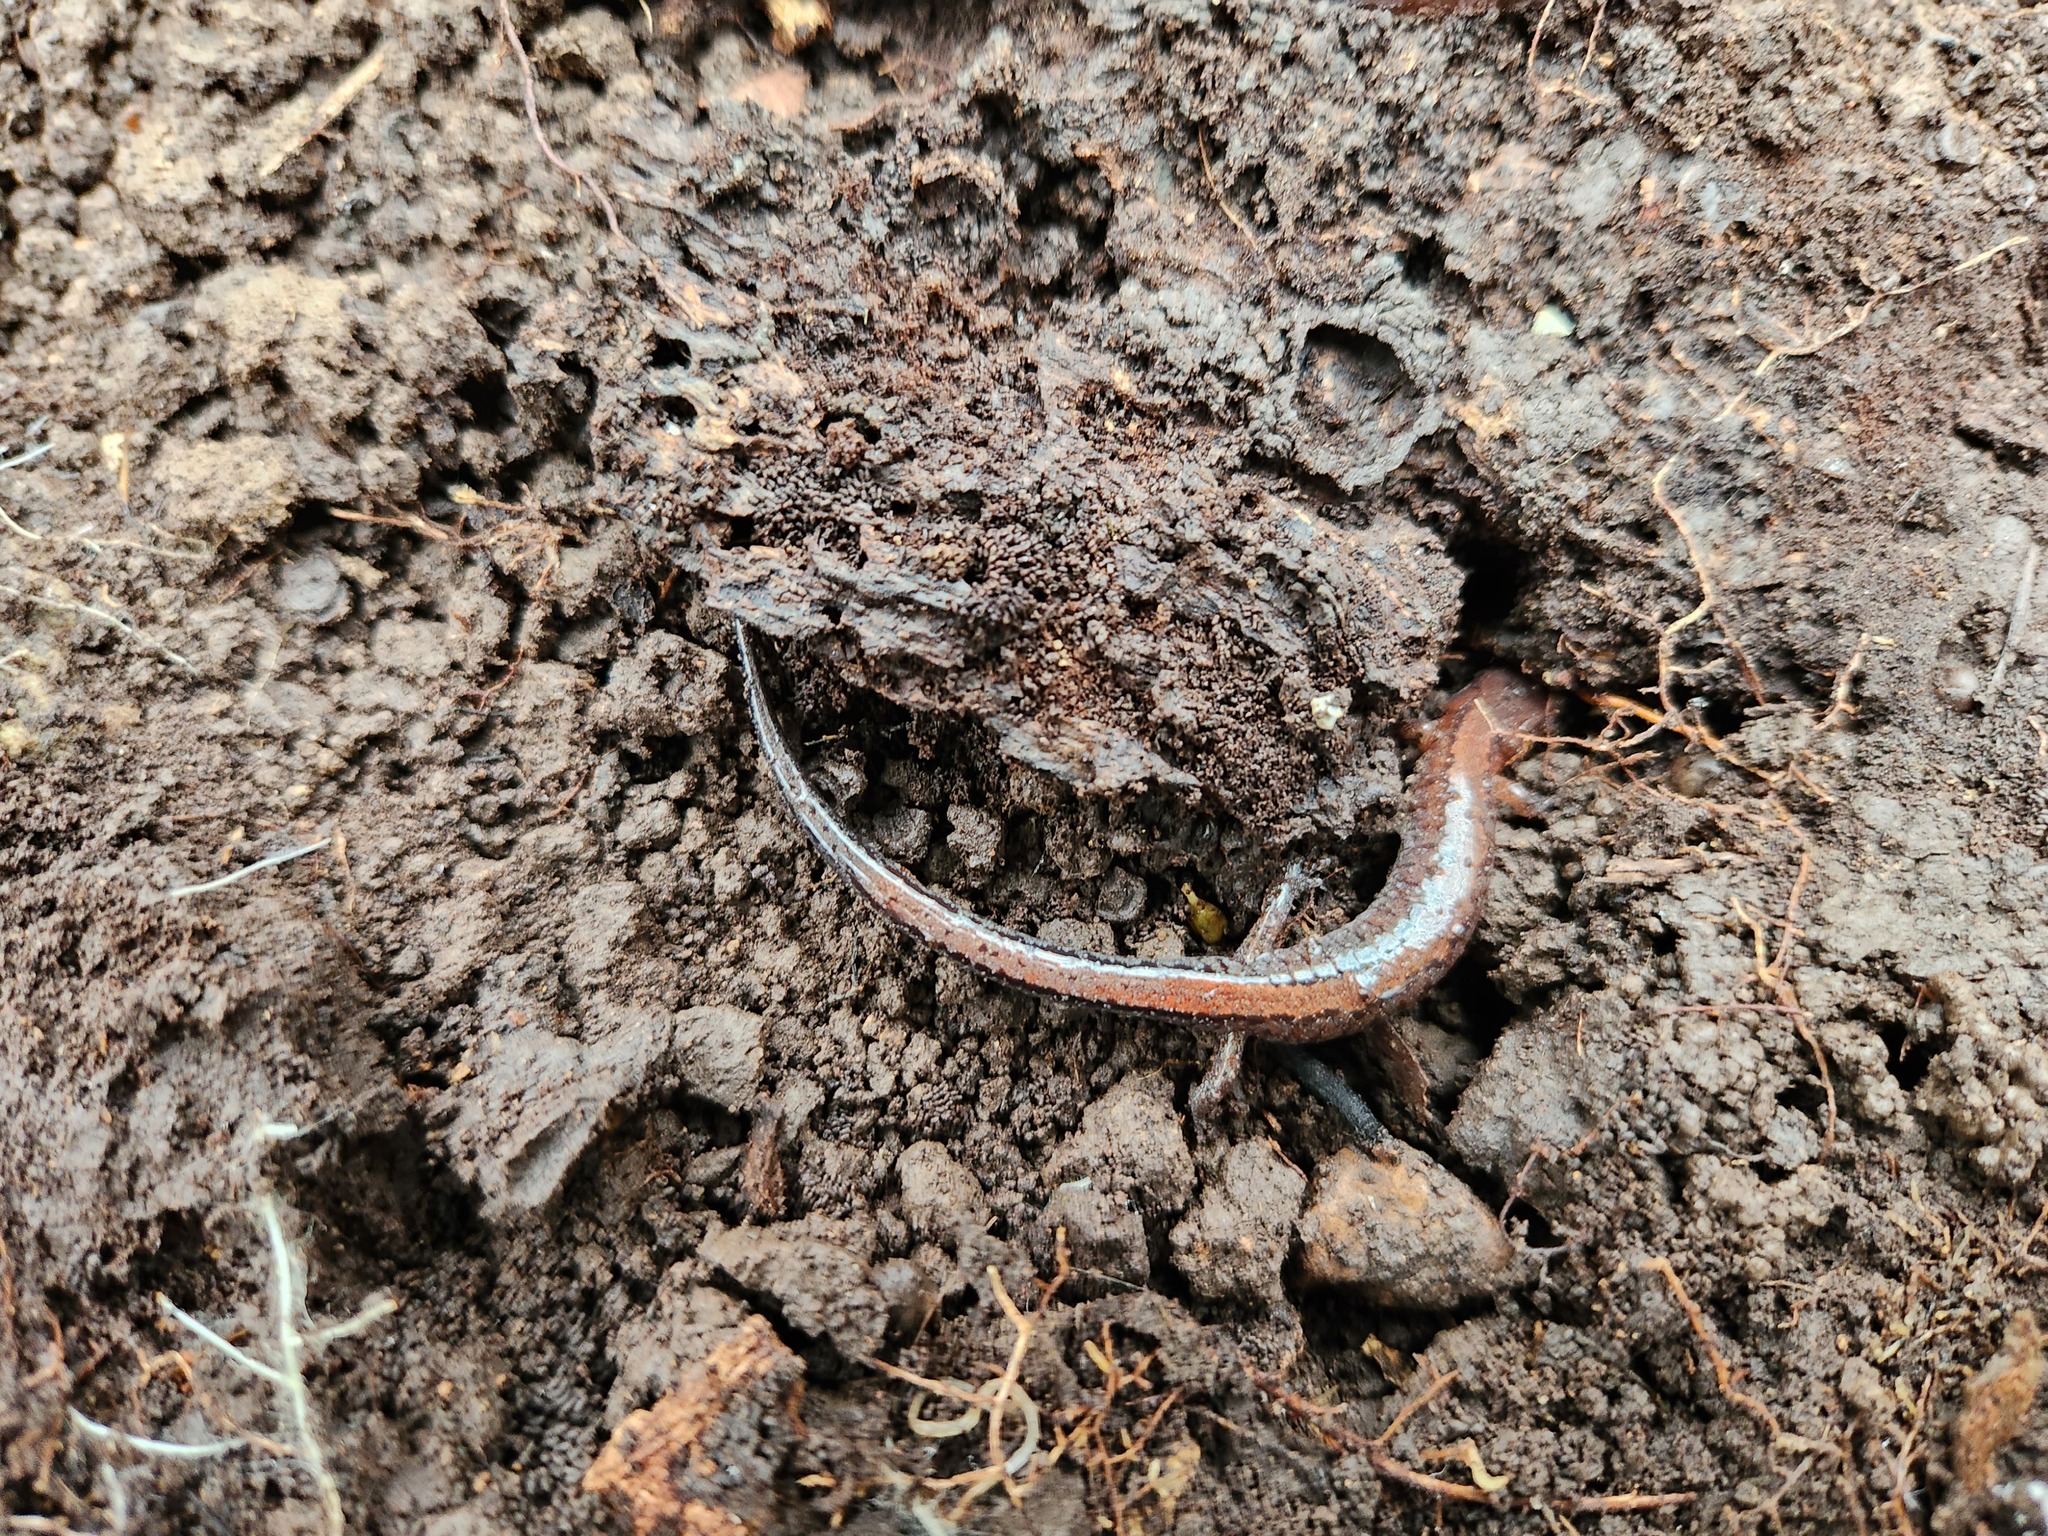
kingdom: Animalia
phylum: Chordata
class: Amphibia
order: Caudata
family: Plethodontidae
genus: Plethodon
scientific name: Plethodon dorsalis
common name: Northern zigzag salamander
